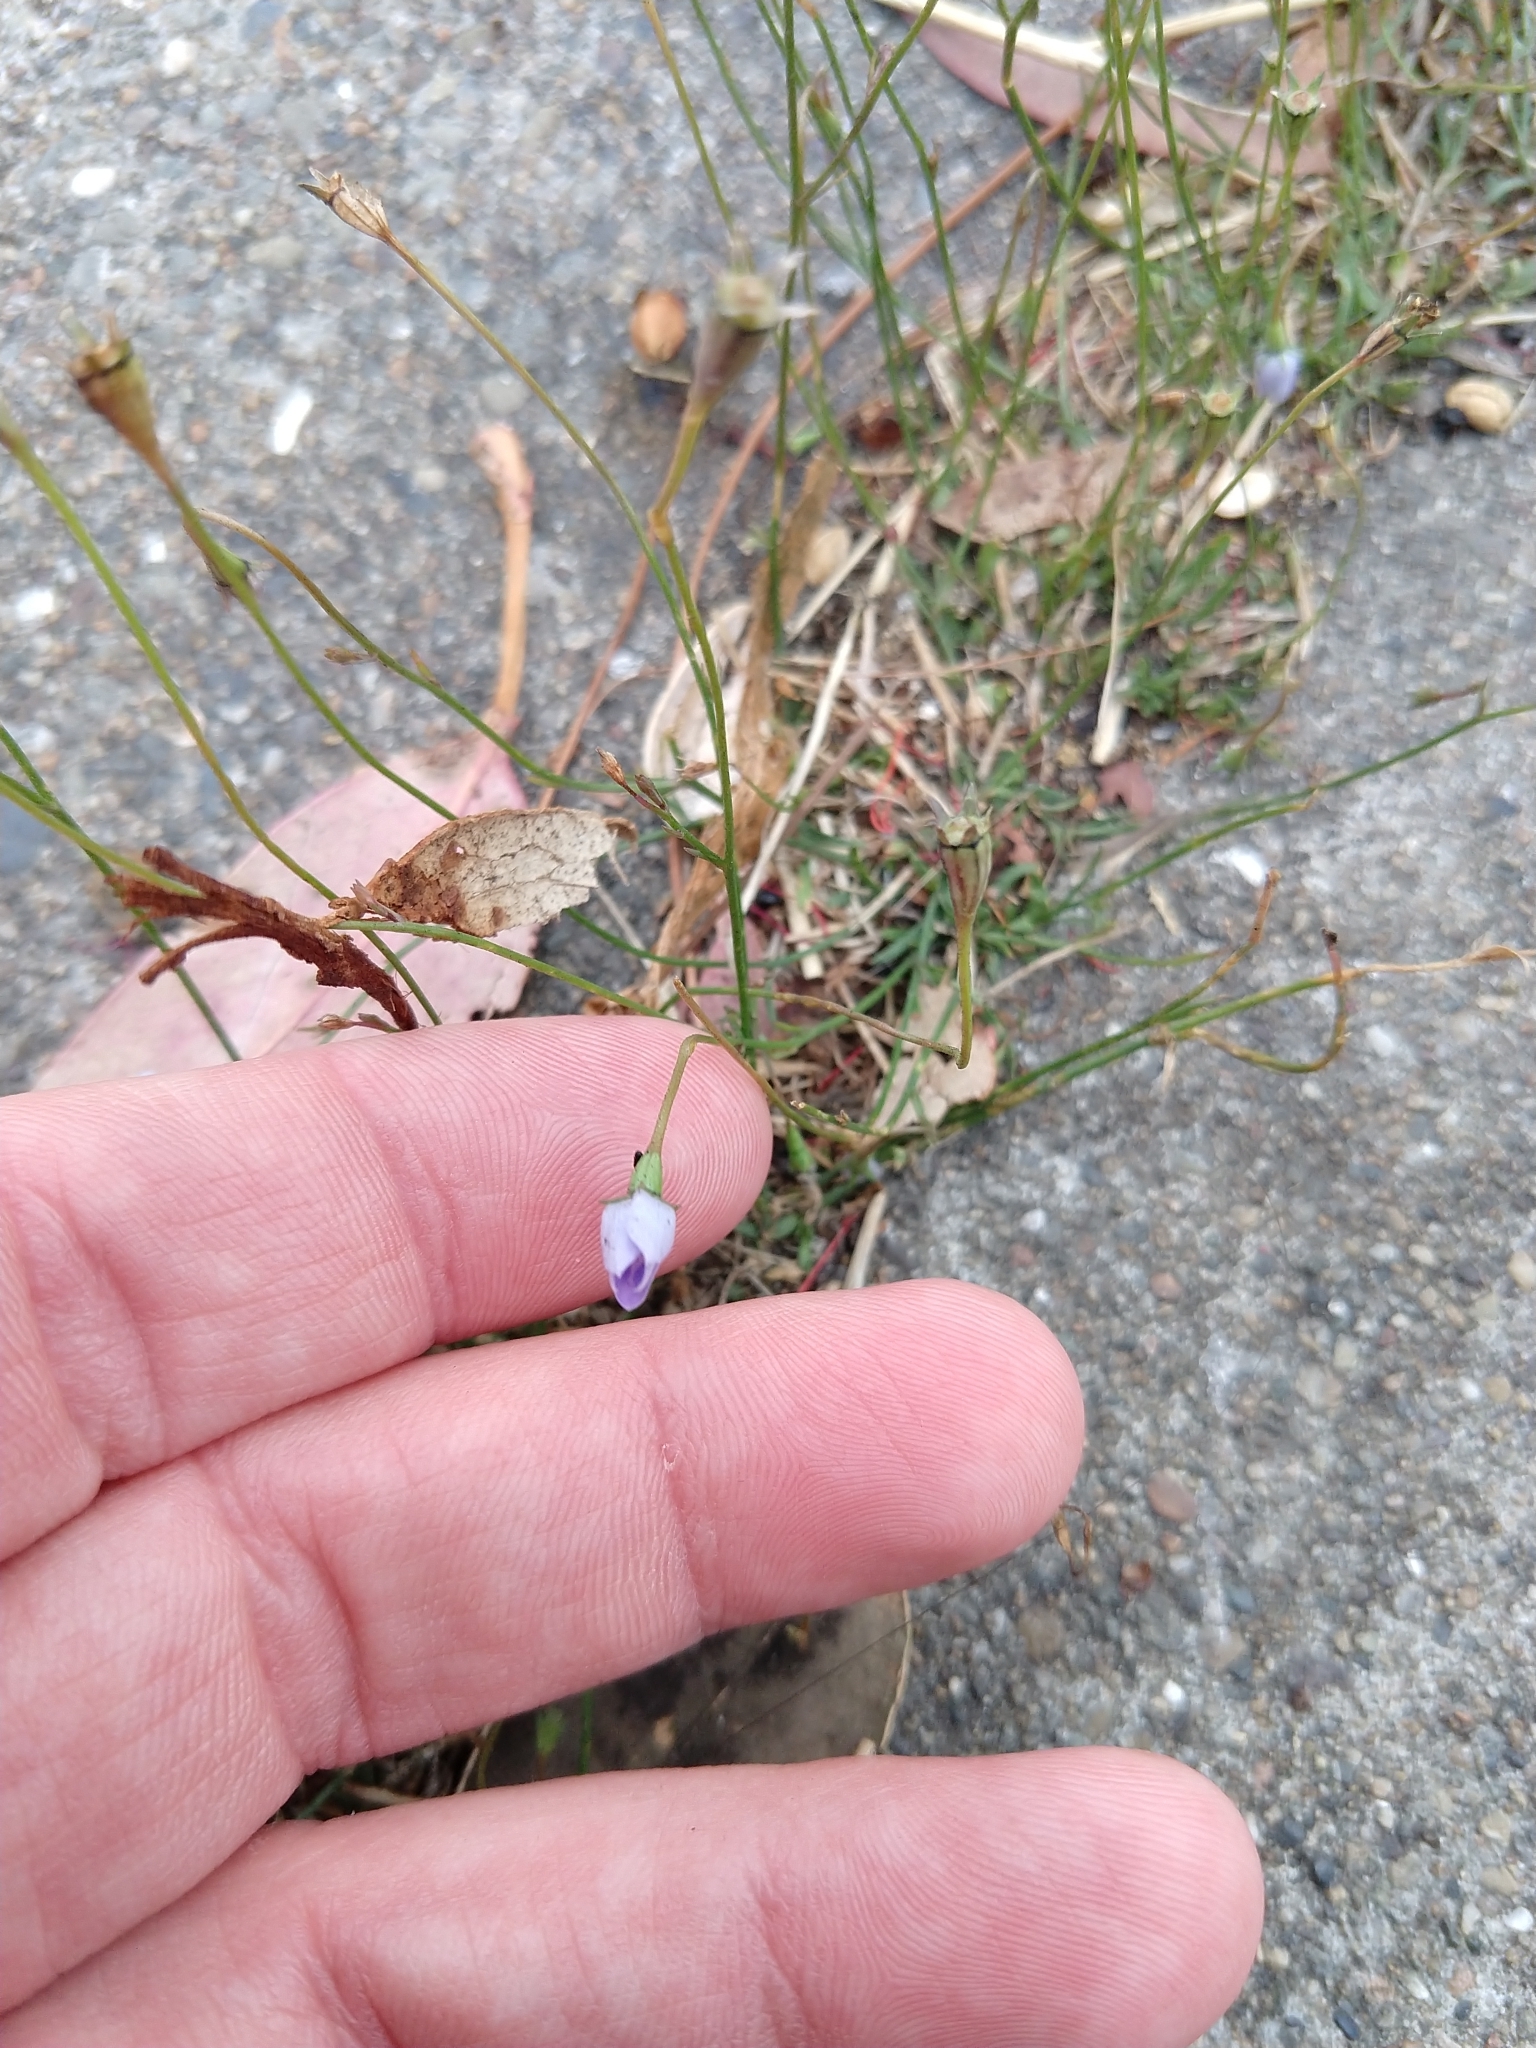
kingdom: Plantae
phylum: Tracheophyta
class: Magnoliopsida
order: Asterales
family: Campanulaceae
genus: Wahlenbergia
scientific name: Wahlenbergia marginata
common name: Southern rockbell
